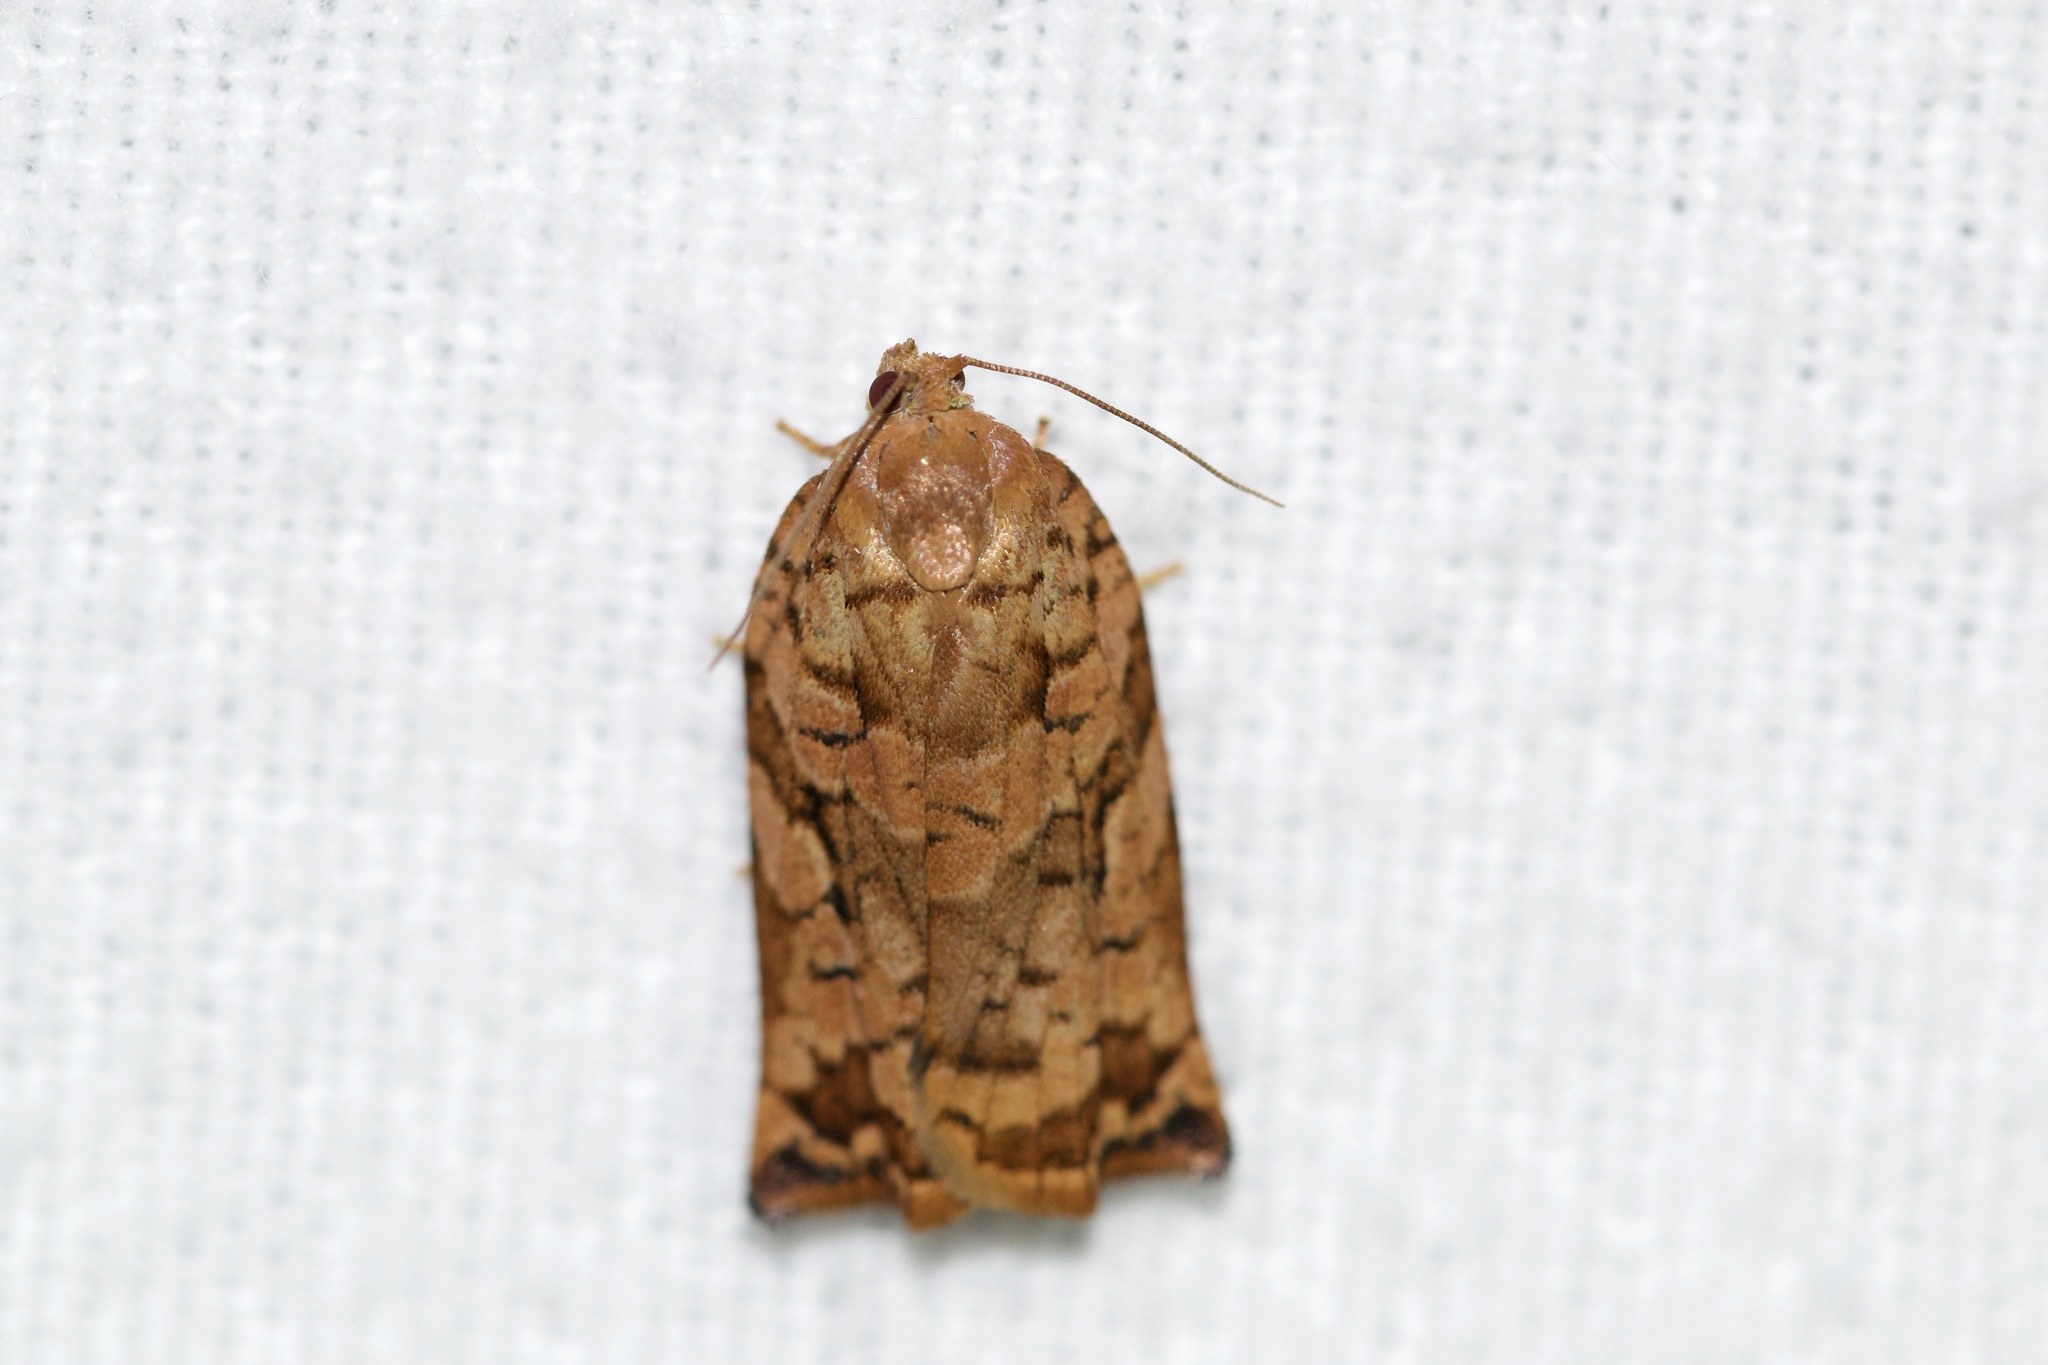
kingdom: Animalia
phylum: Arthropoda
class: Insecta
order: Lepidoptera
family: Tortricidae
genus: Archips
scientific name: Archips oporana
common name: Sprice tortrix moth
